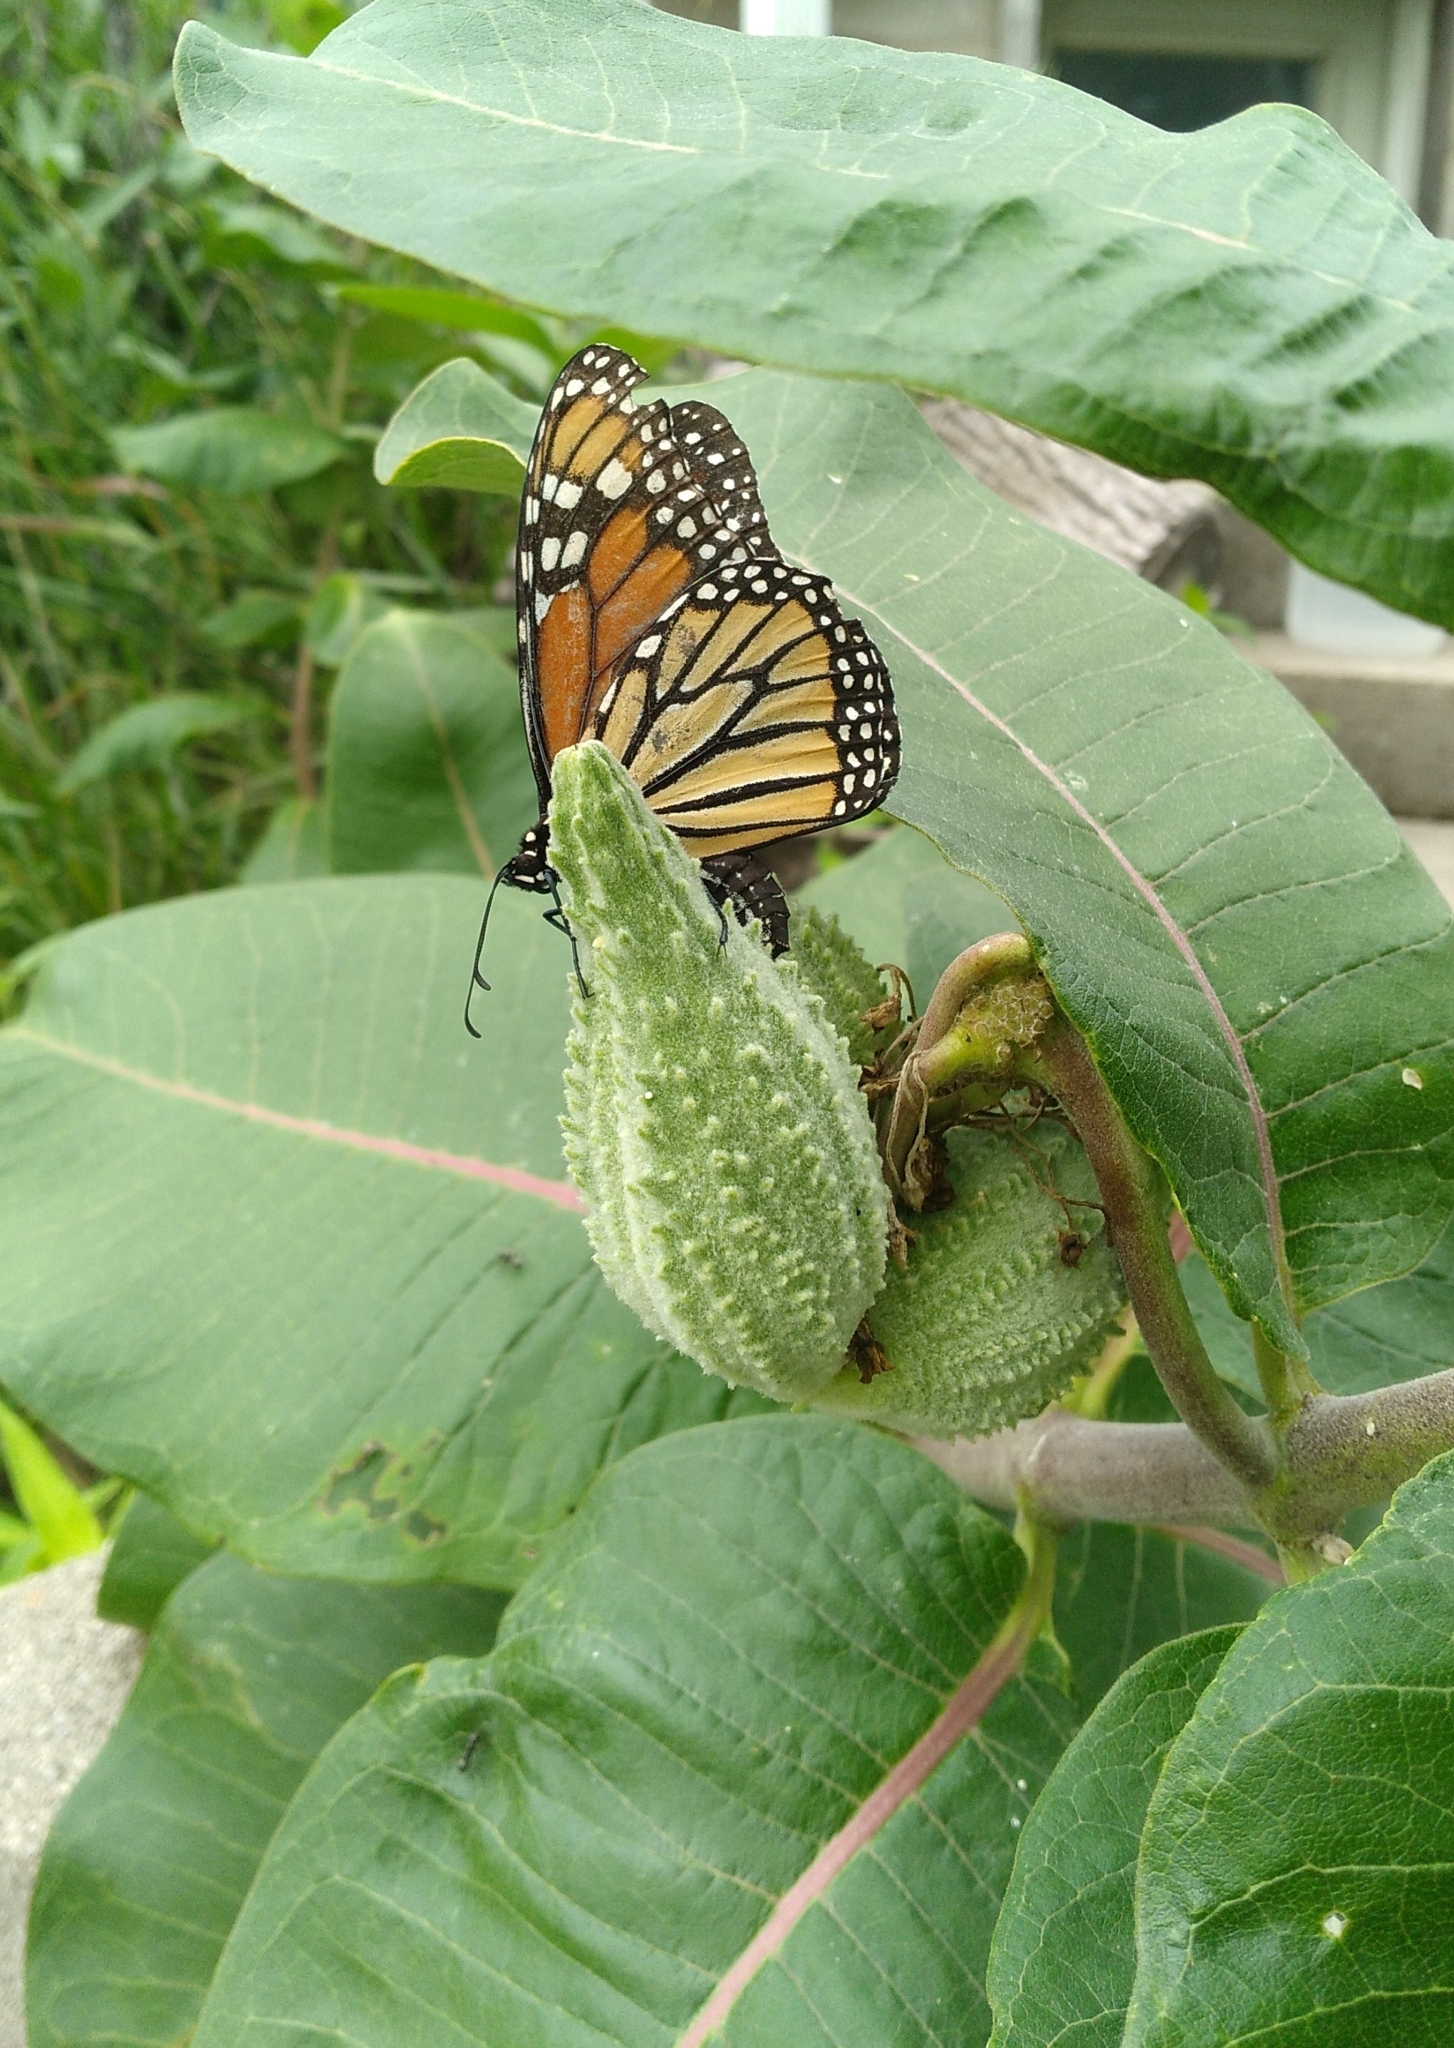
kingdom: Animalia
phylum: Arthropoda
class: Insecta
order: Lepidoptera
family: Nymphalidae
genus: Danaus
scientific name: Danaus plexippus
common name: Monarch
